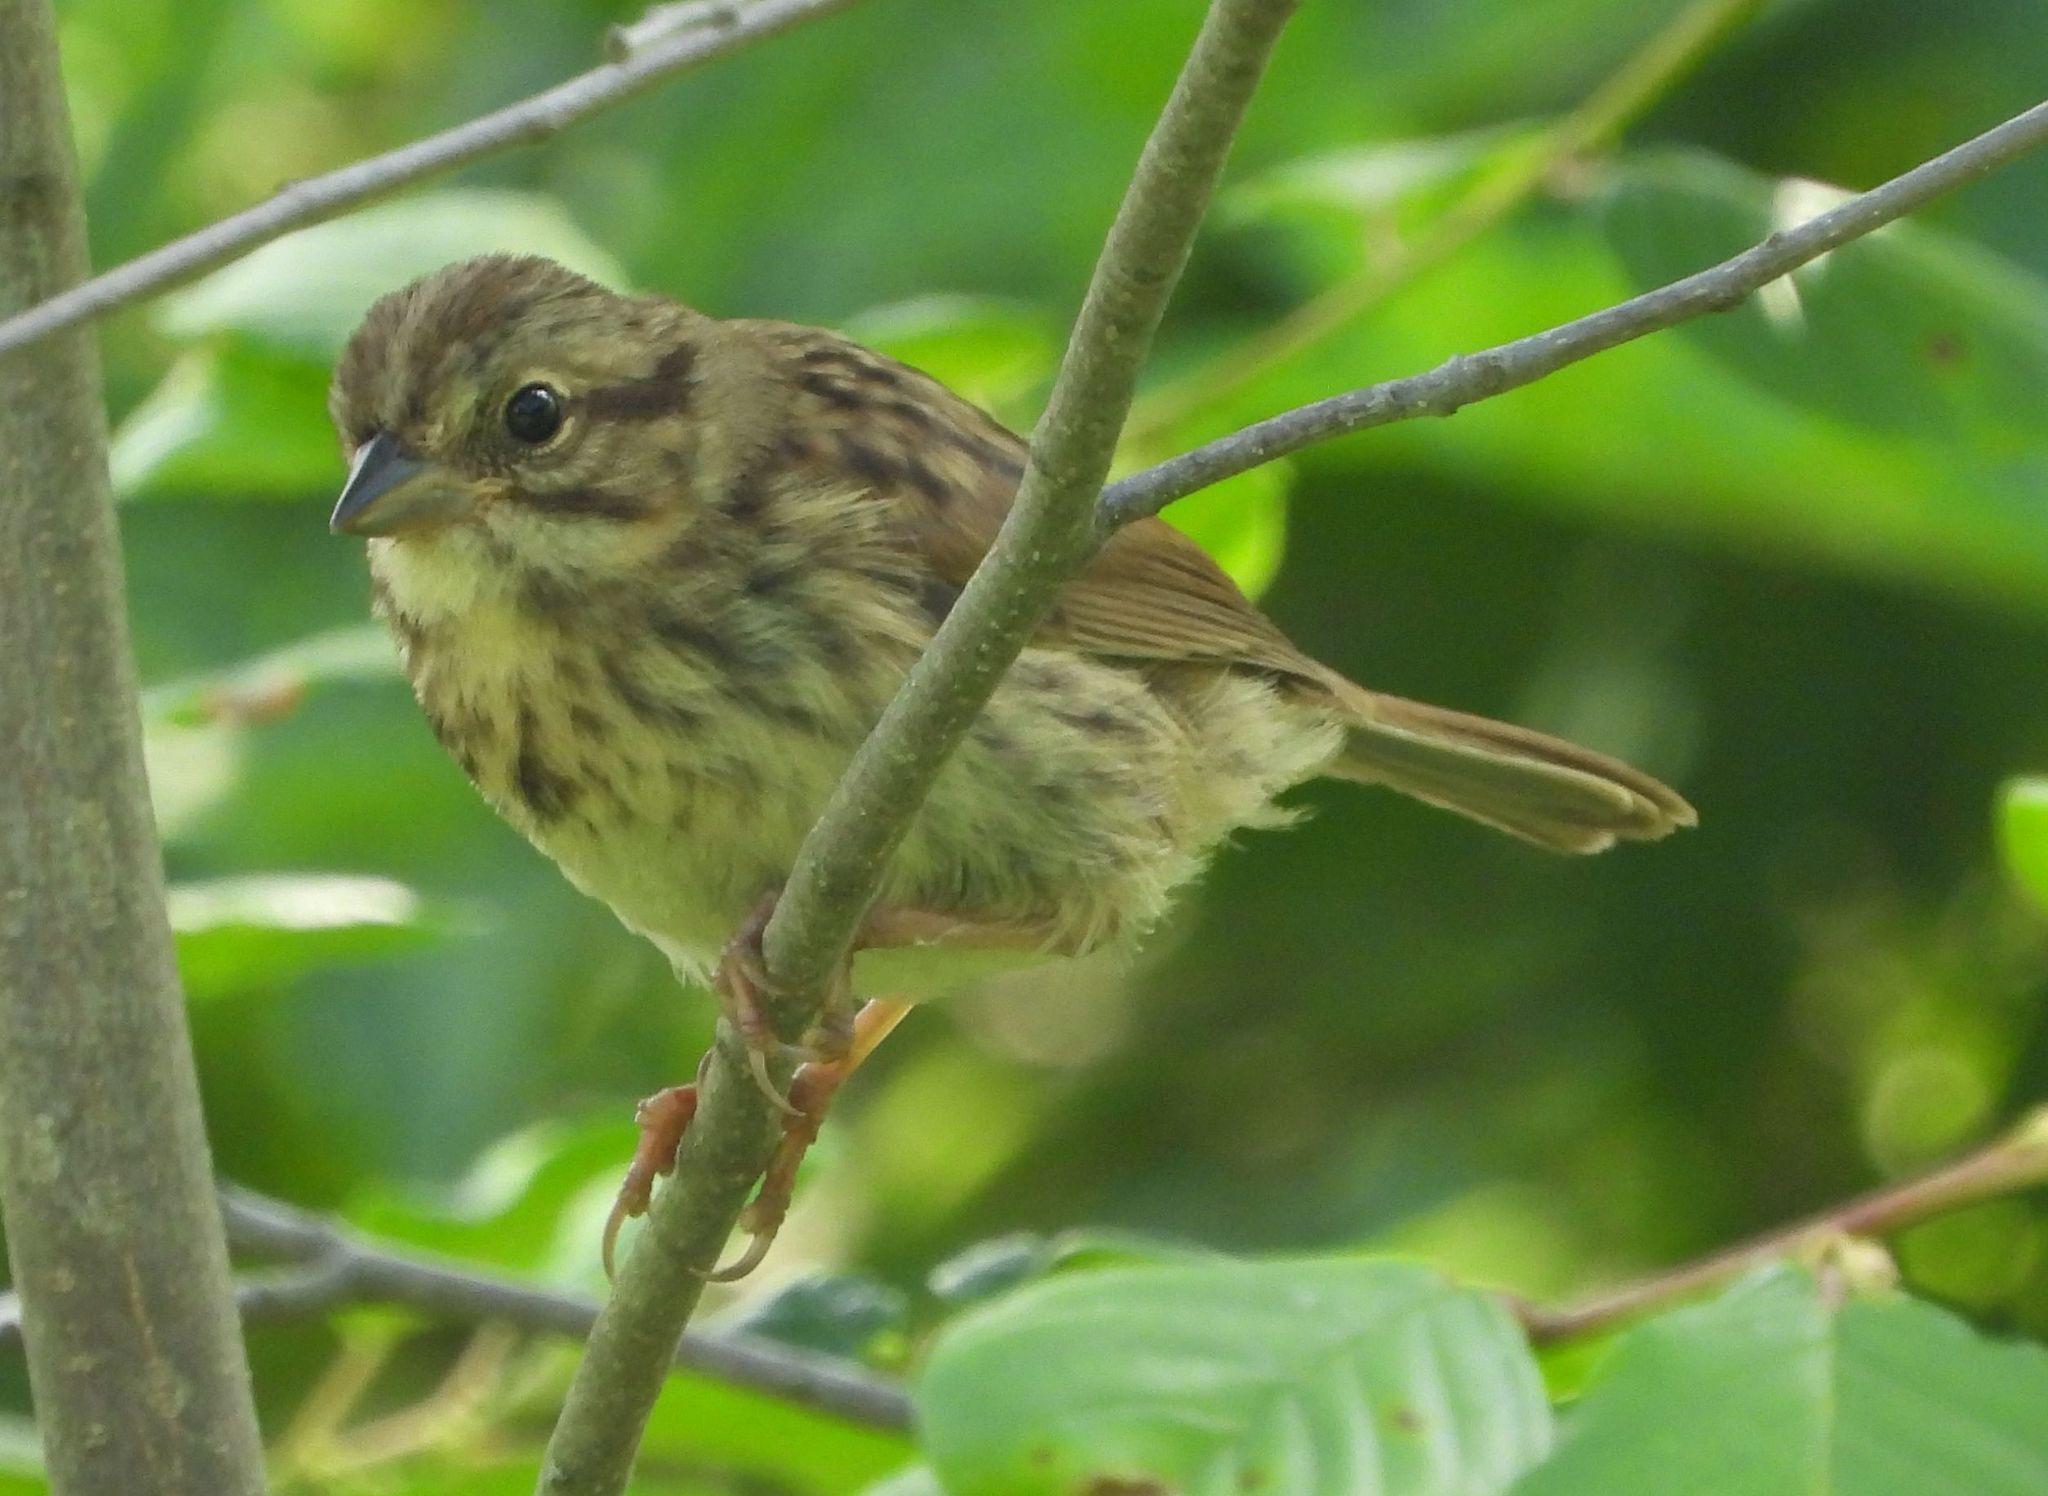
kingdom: Animalia
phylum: Chordata
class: Aves
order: Passeriformes
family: Passerellidae
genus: Melospiza
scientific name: Melospiza melodia
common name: Song sparrow
